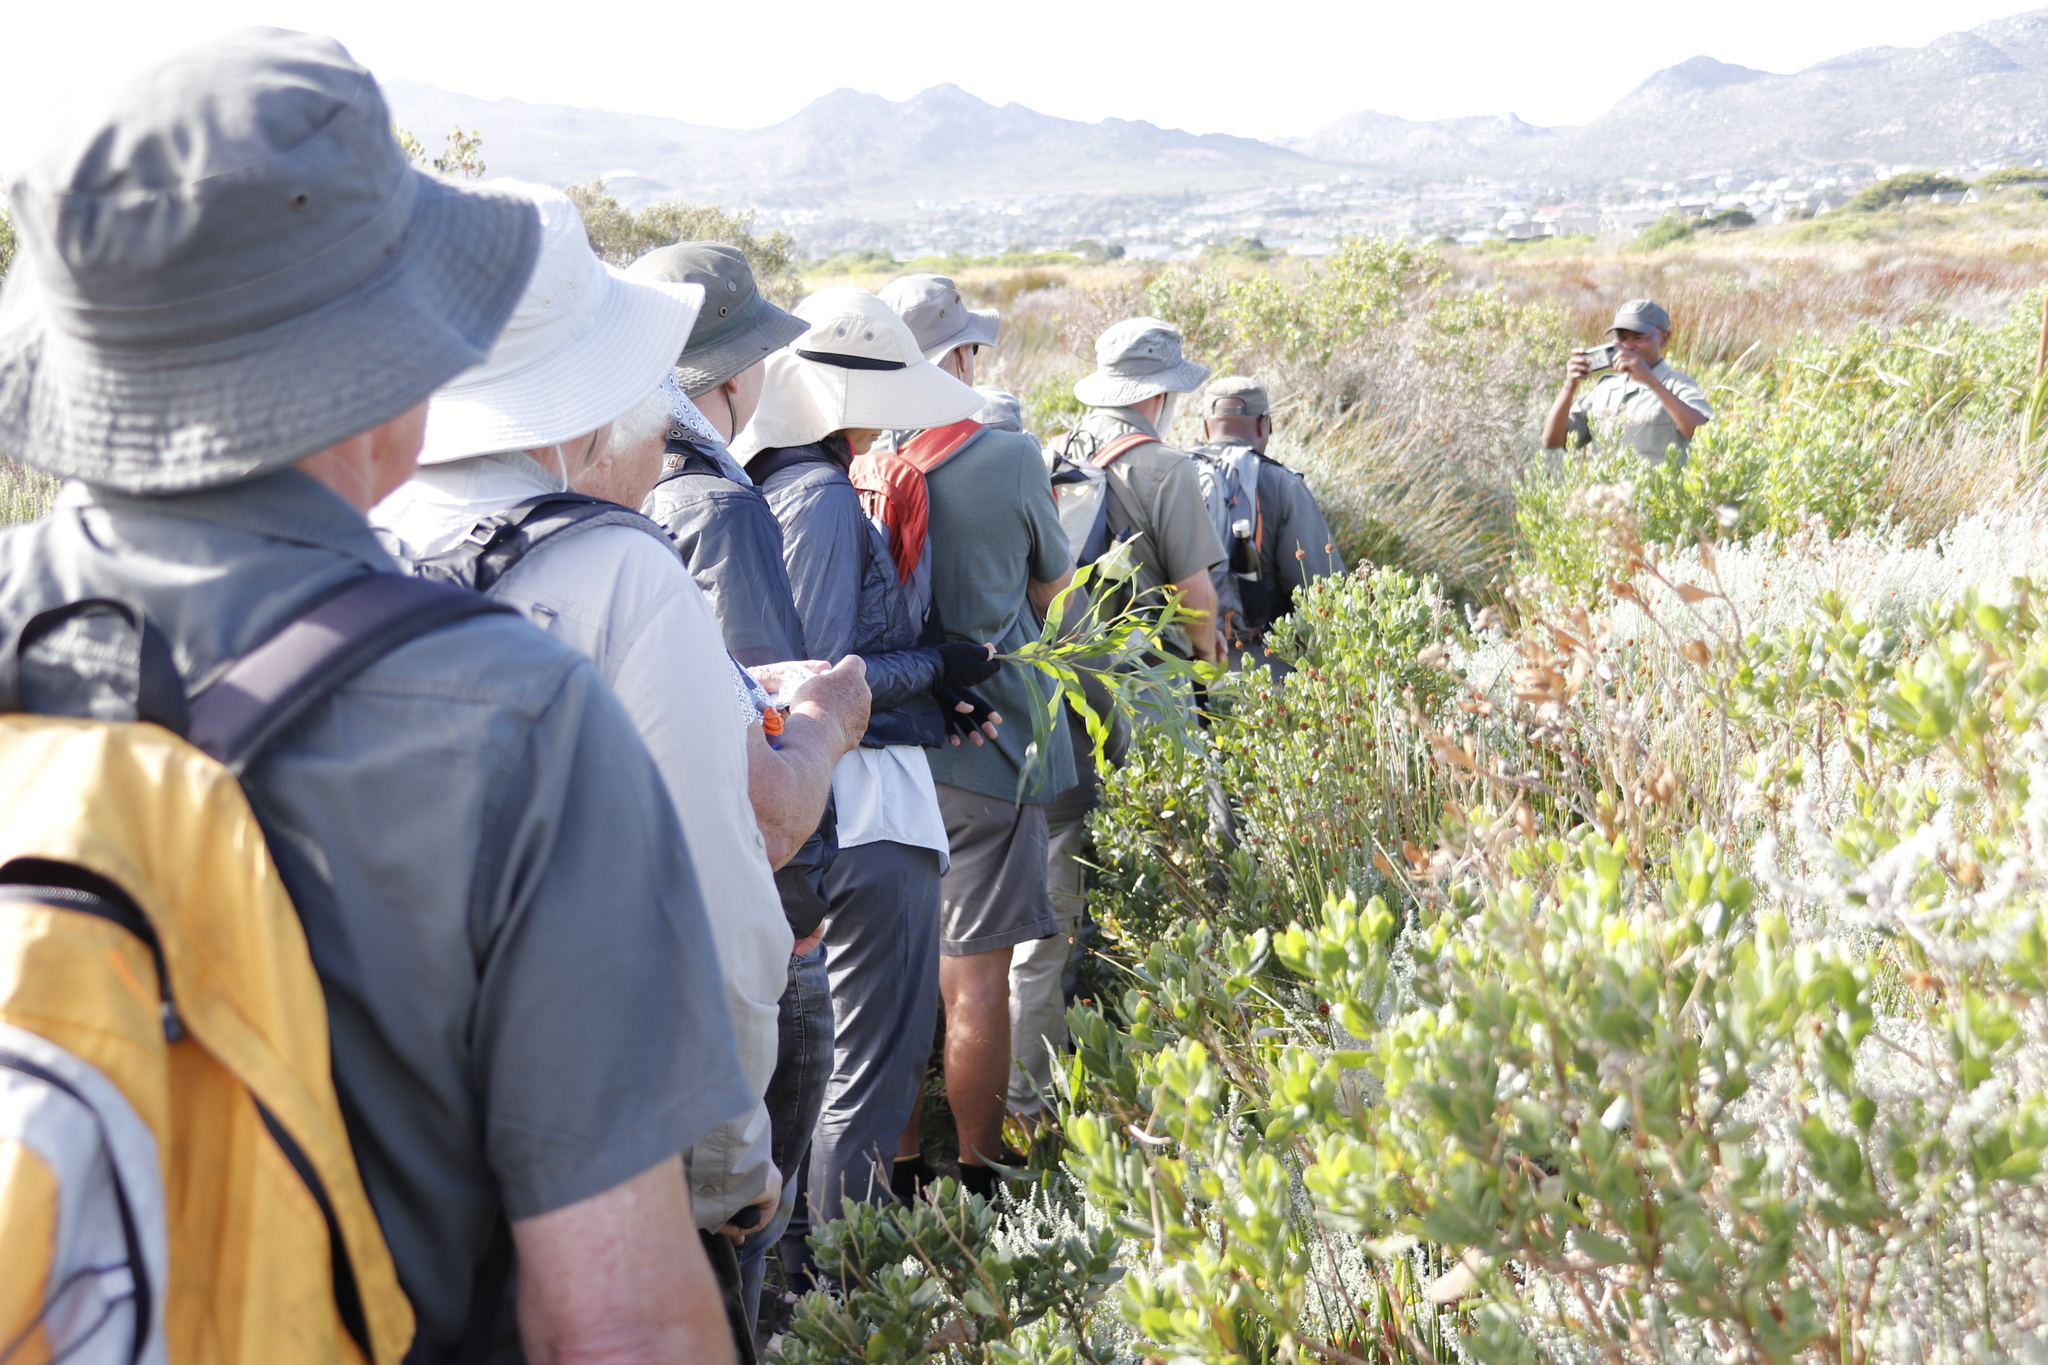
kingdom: Plantae
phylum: Tracheophyta
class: Magnoliopsida
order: Fabales
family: Fabaceae
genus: Acacia
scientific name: Acacia saligna
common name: Orange wattle
